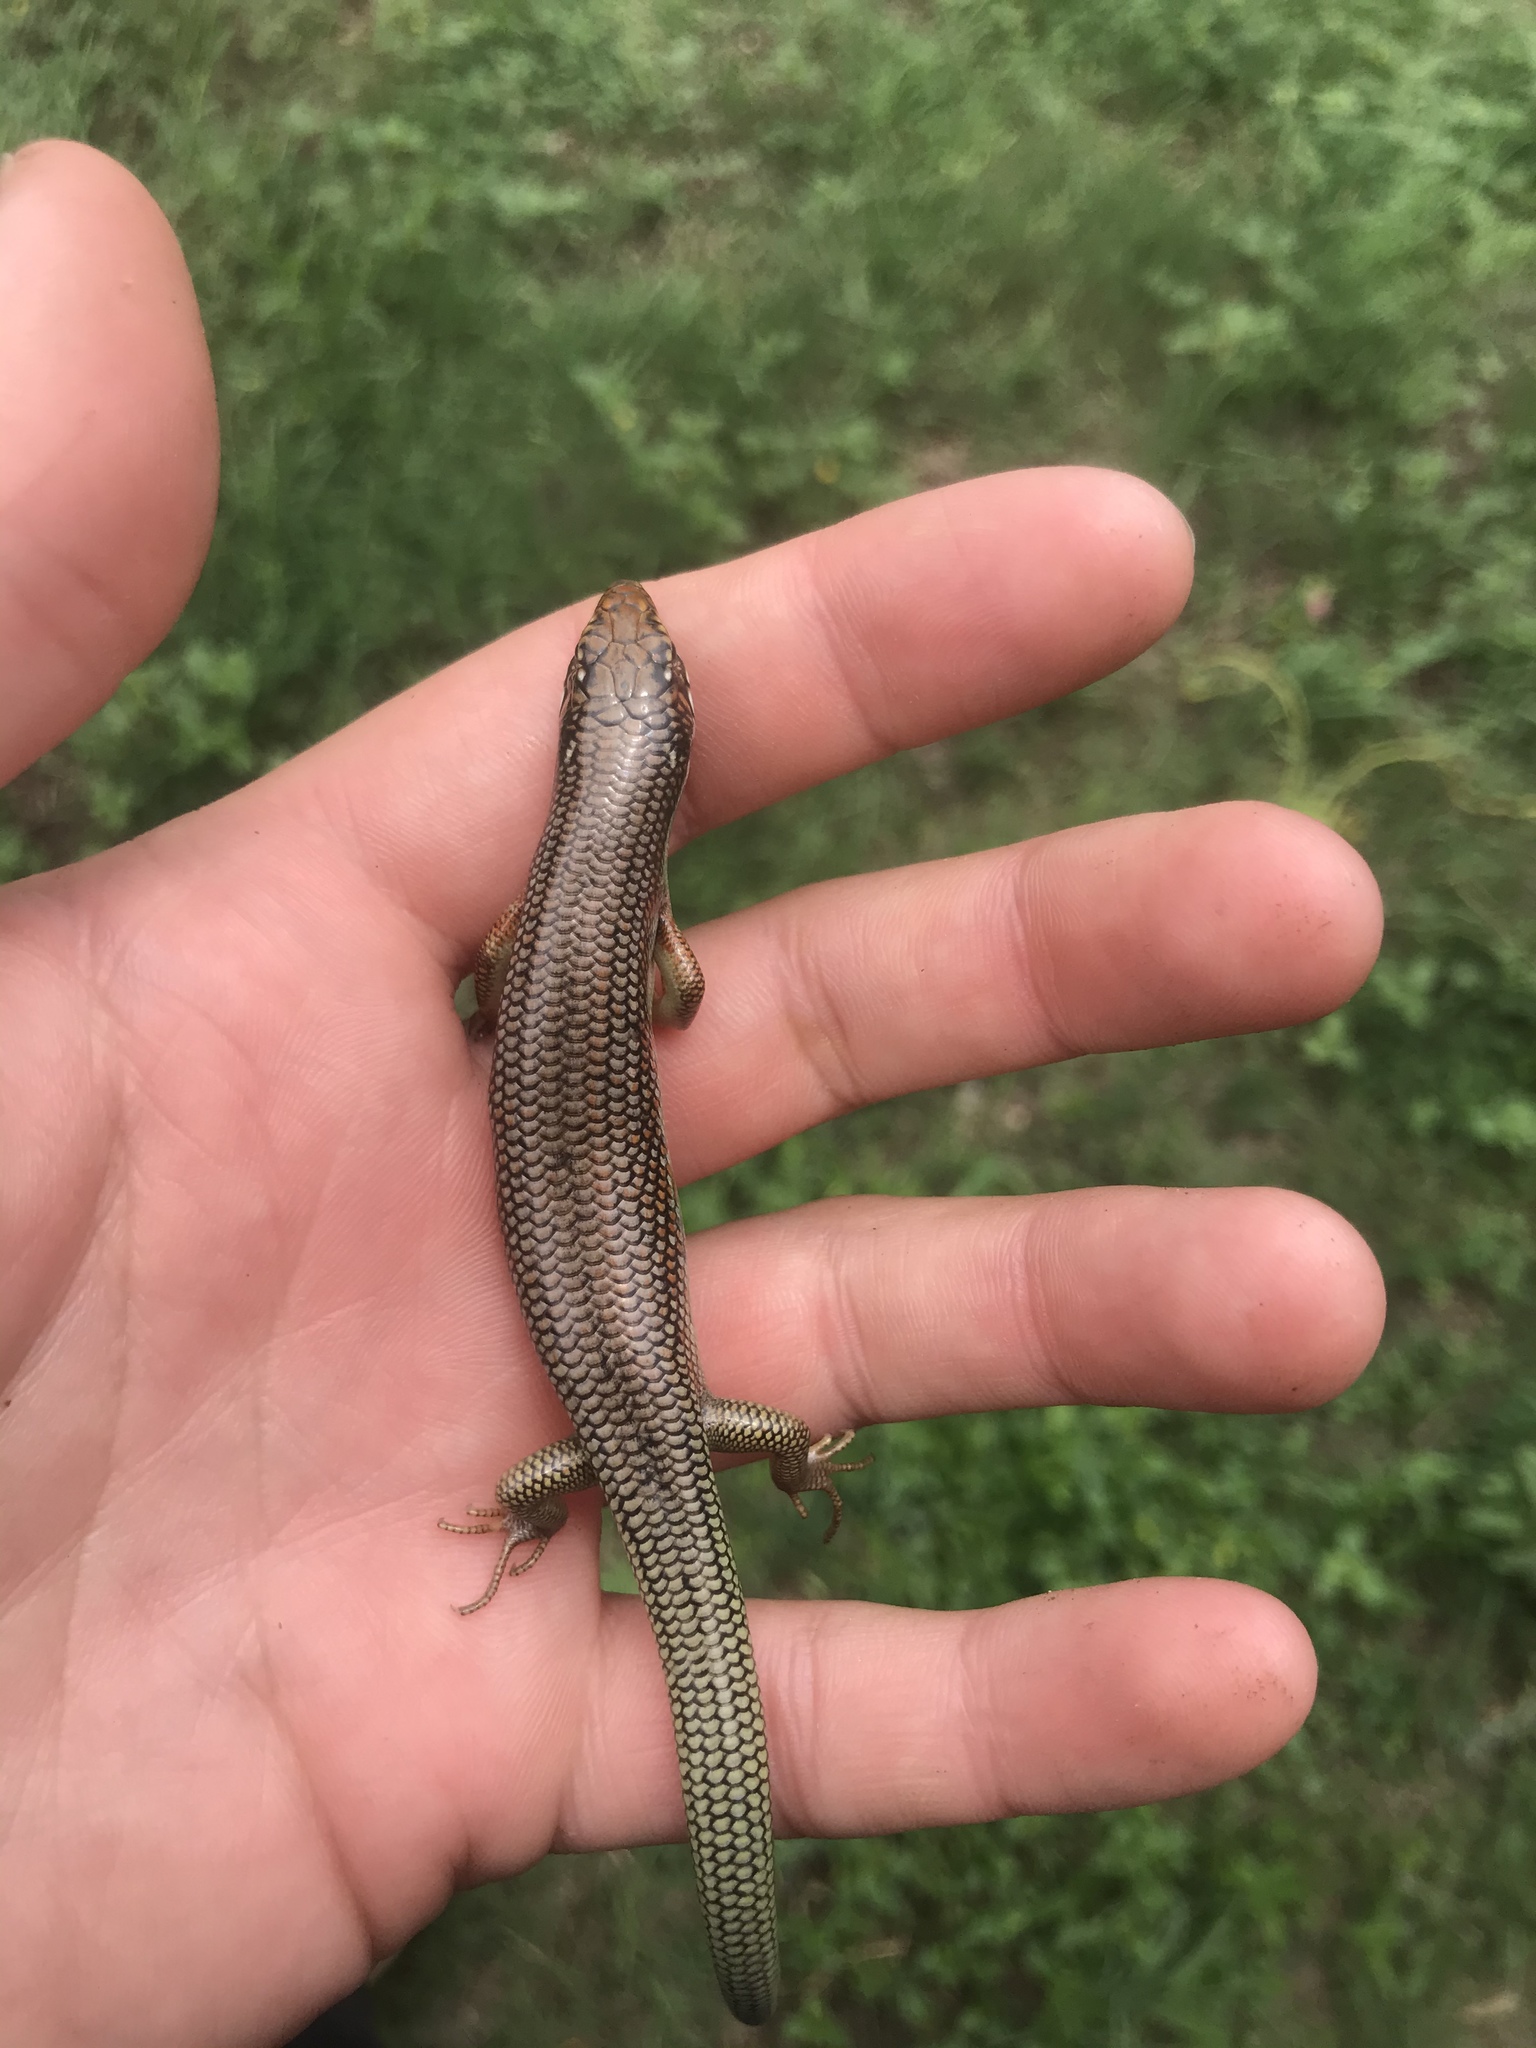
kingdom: Animalia
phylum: Chordata
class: Squamata
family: Scincidae
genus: Plestiodon
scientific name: Plestiodon obsoletus
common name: Great plains skink
